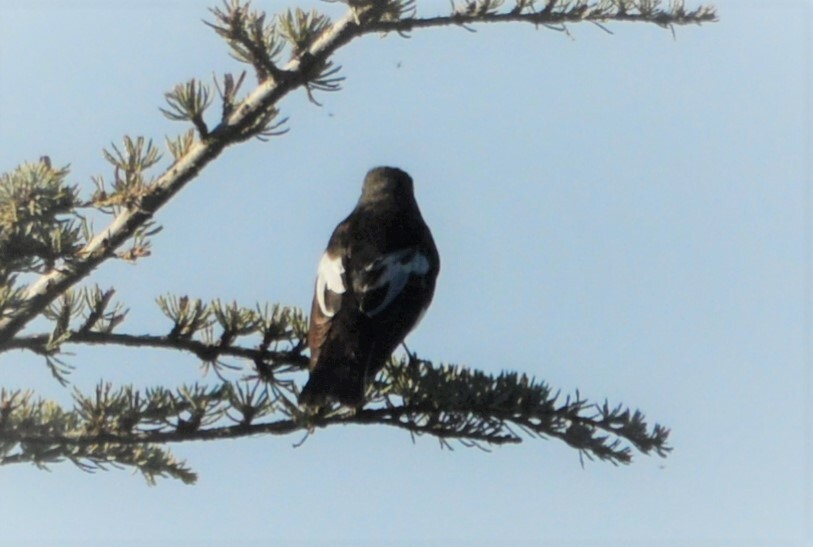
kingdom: Animalia
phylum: Chordata
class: Aves
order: Passeriformes
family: Muscicapidae
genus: Ficedula
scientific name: Ficedula hypoleuca
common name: European pied flycatcher
